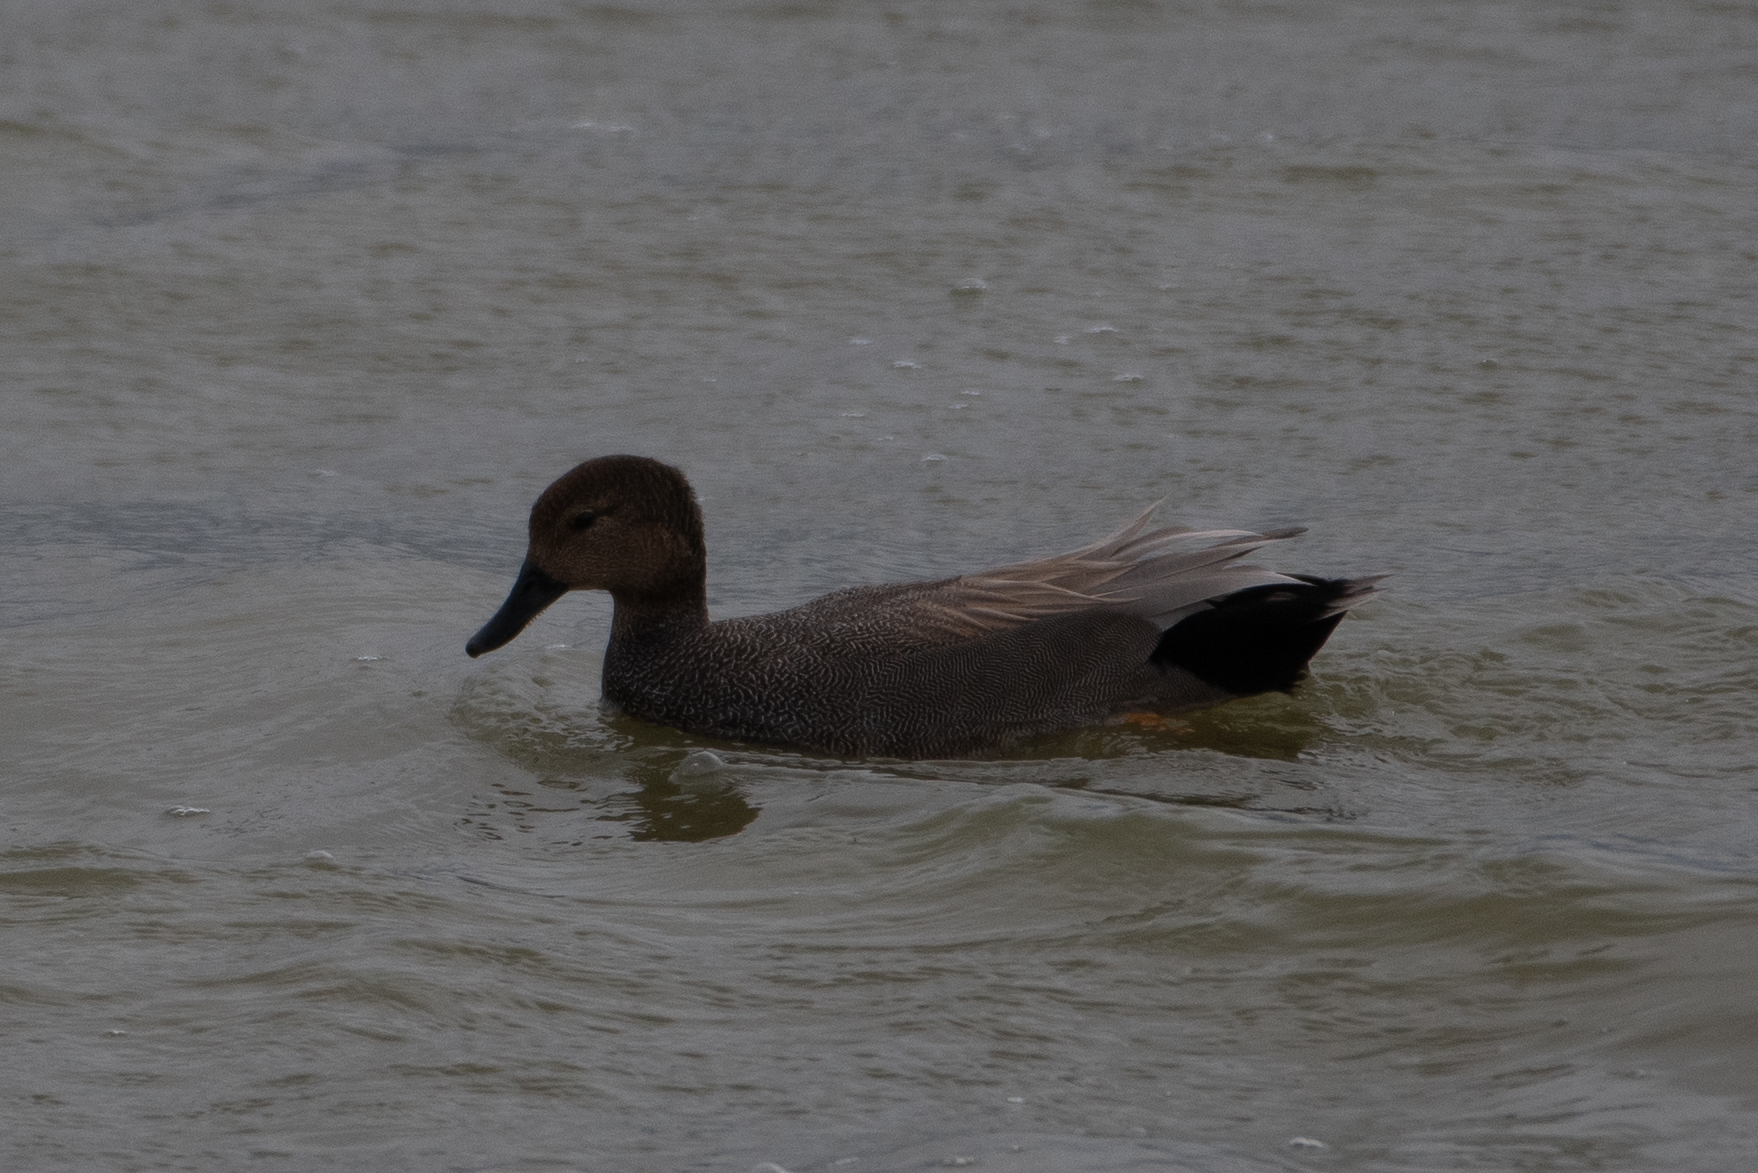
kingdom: Animalia
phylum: Chordata
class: Aves
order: Anseriformes
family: Anatidae
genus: Mareca
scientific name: Mareca strepera
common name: Gadwall
